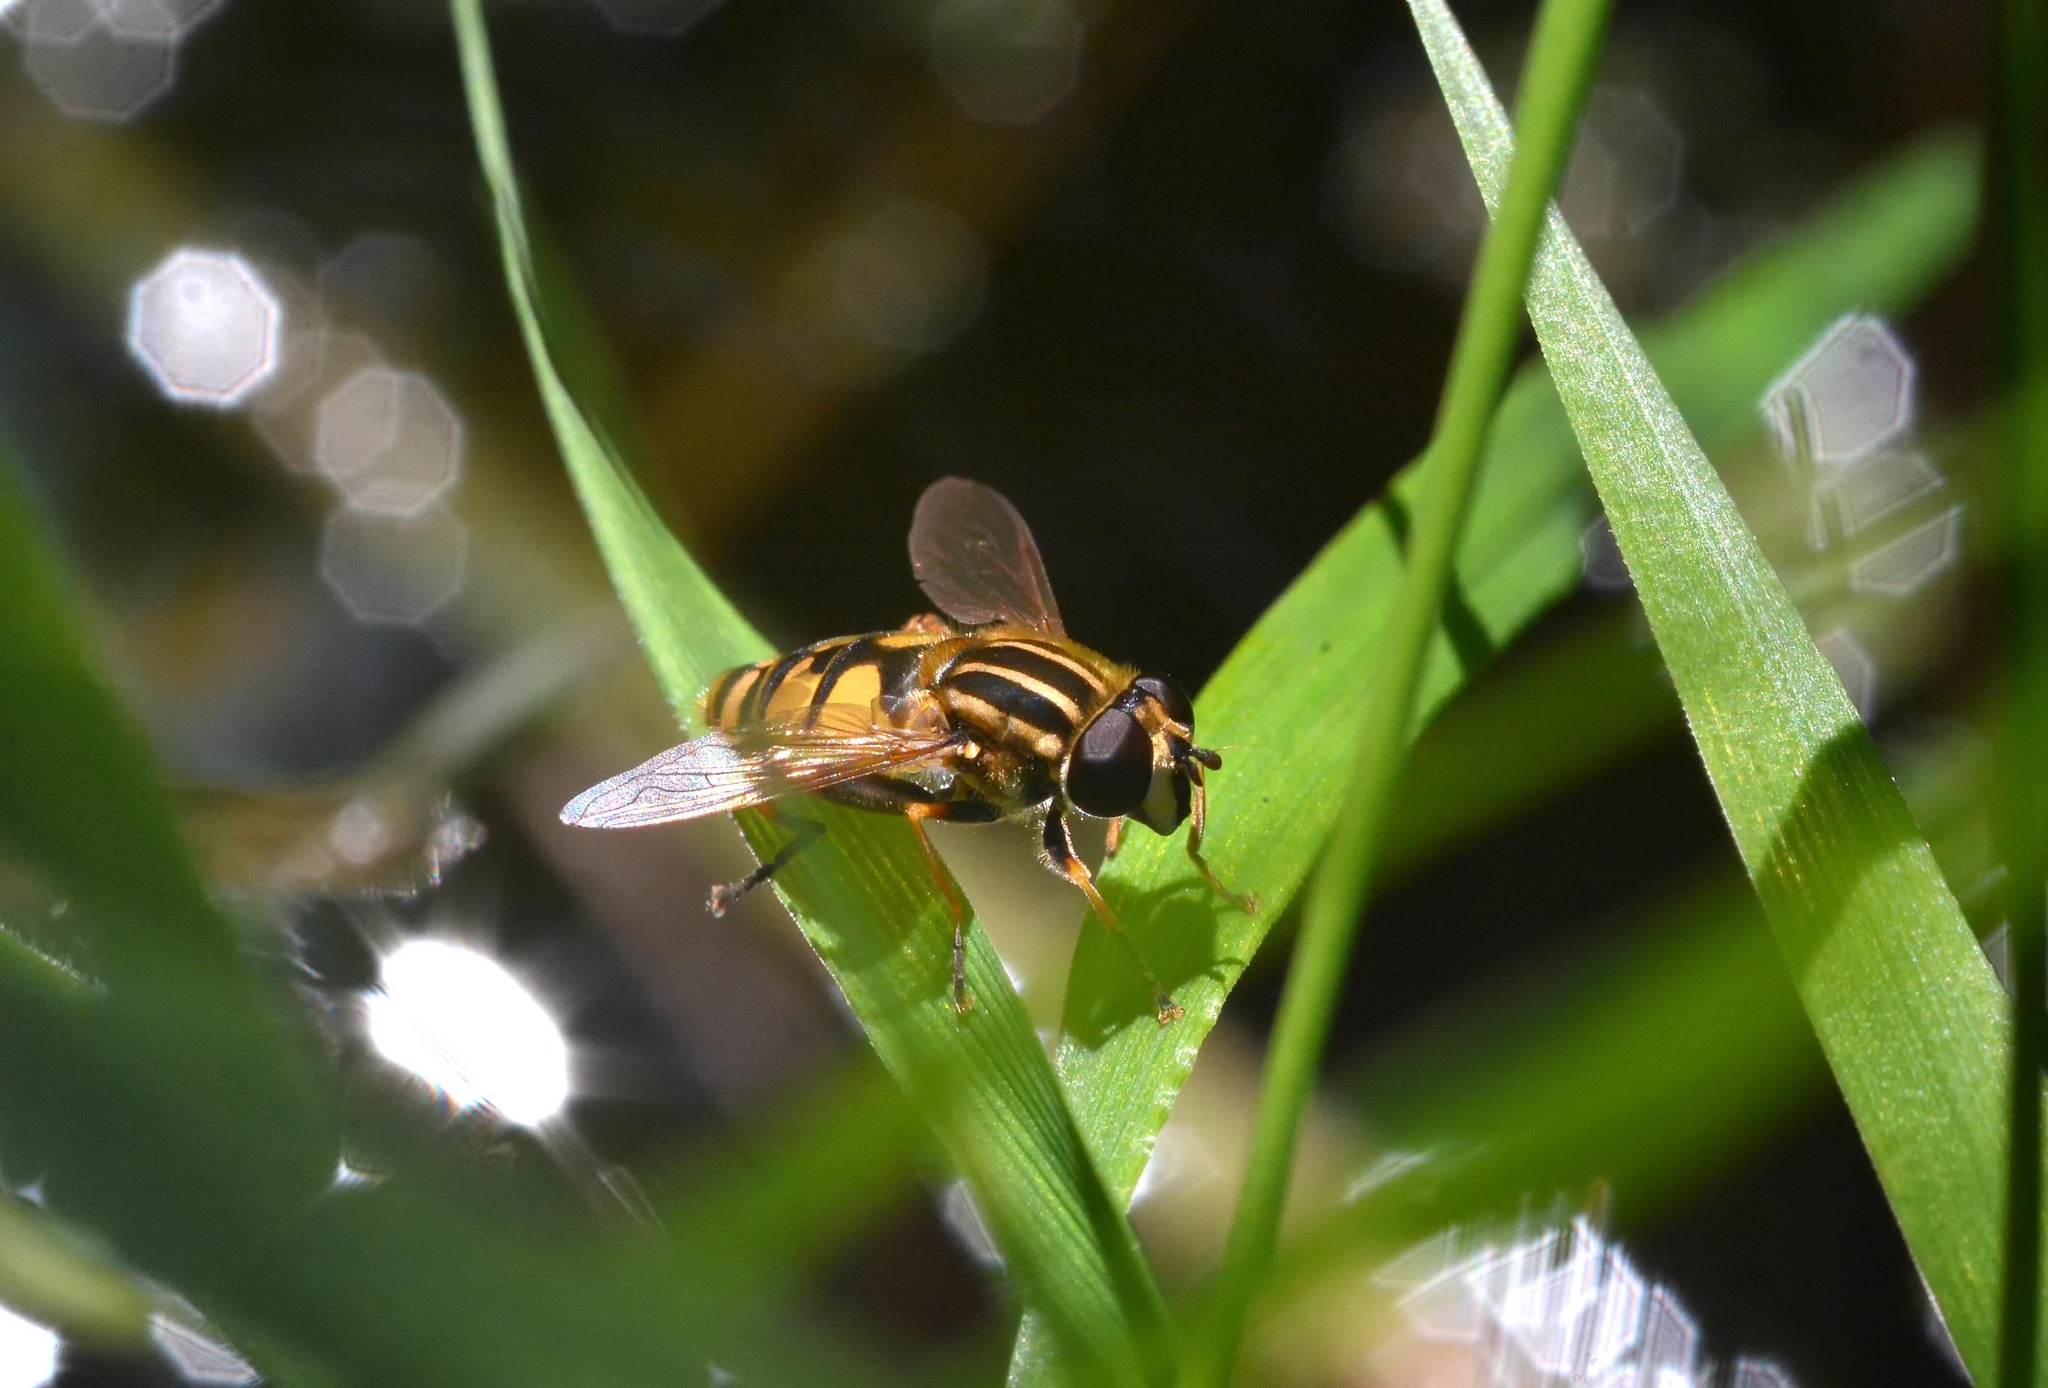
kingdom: Animalia
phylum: Arthropoda
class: Insecta
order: Diptera
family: Syrphidae
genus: Helophilus
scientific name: Helophilus pendulus
